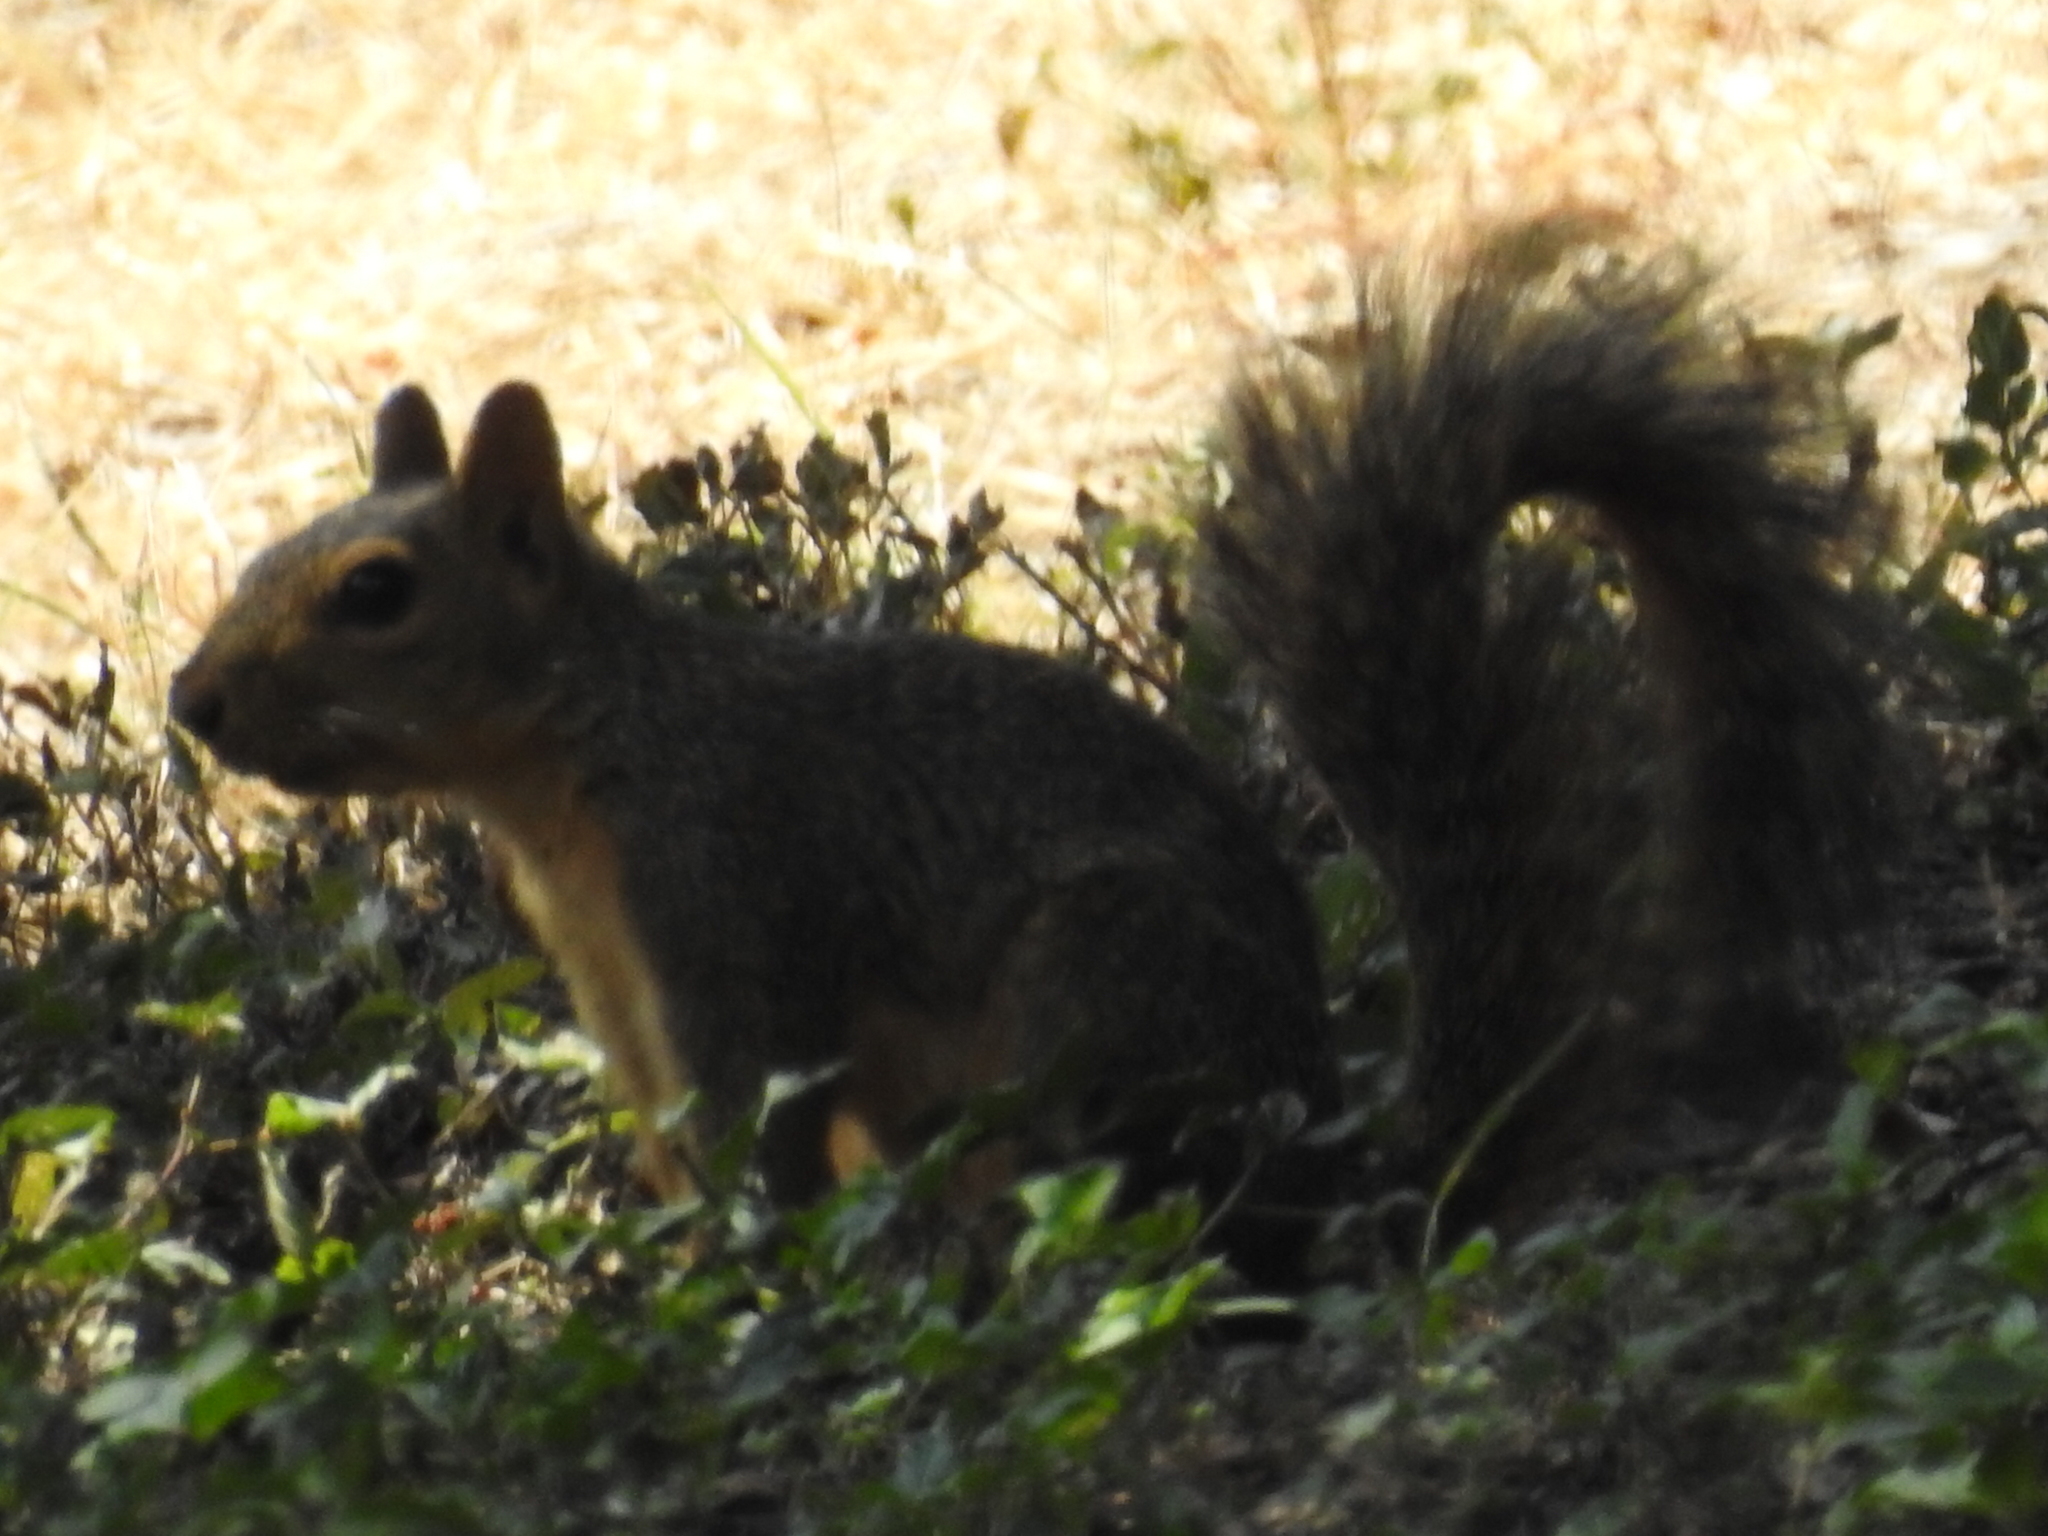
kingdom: Animalia
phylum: Chordata
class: Mammalia
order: Rodentia
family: Sciuridae
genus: Sciurus
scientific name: Sciurus niger
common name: Fox squirrel
